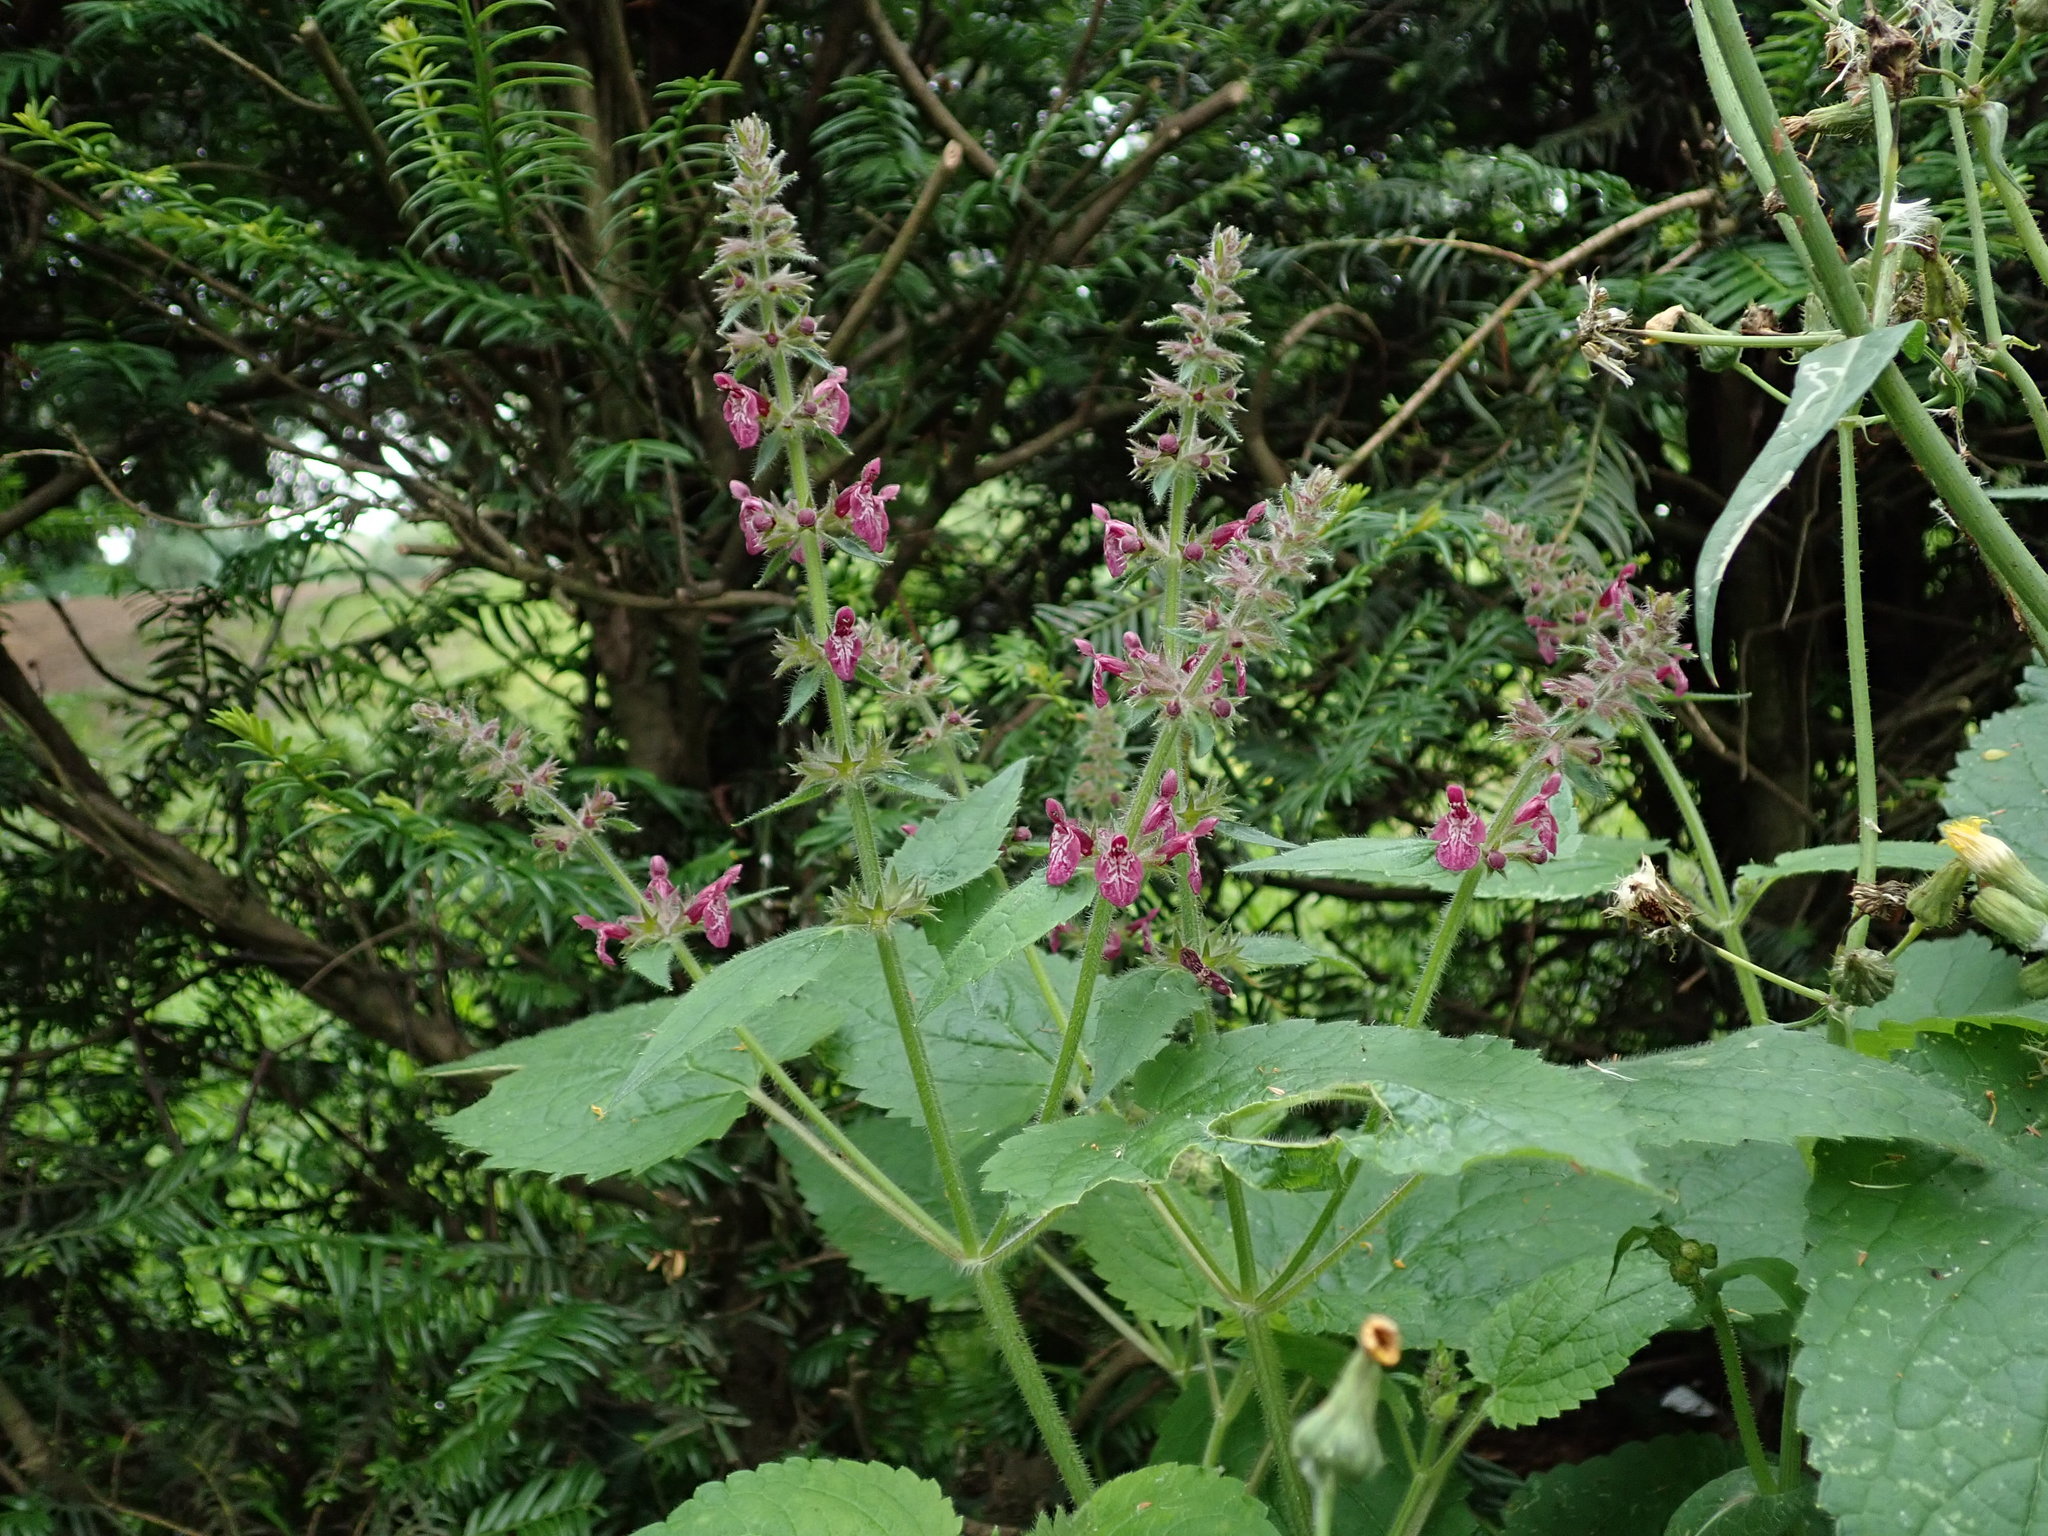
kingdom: Plantae
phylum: Tracheophyta
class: Magnoliopsida
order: Lamiales
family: Lamiaceae
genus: Stachys
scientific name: Stachys sylvatica
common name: Hedge woundwort
